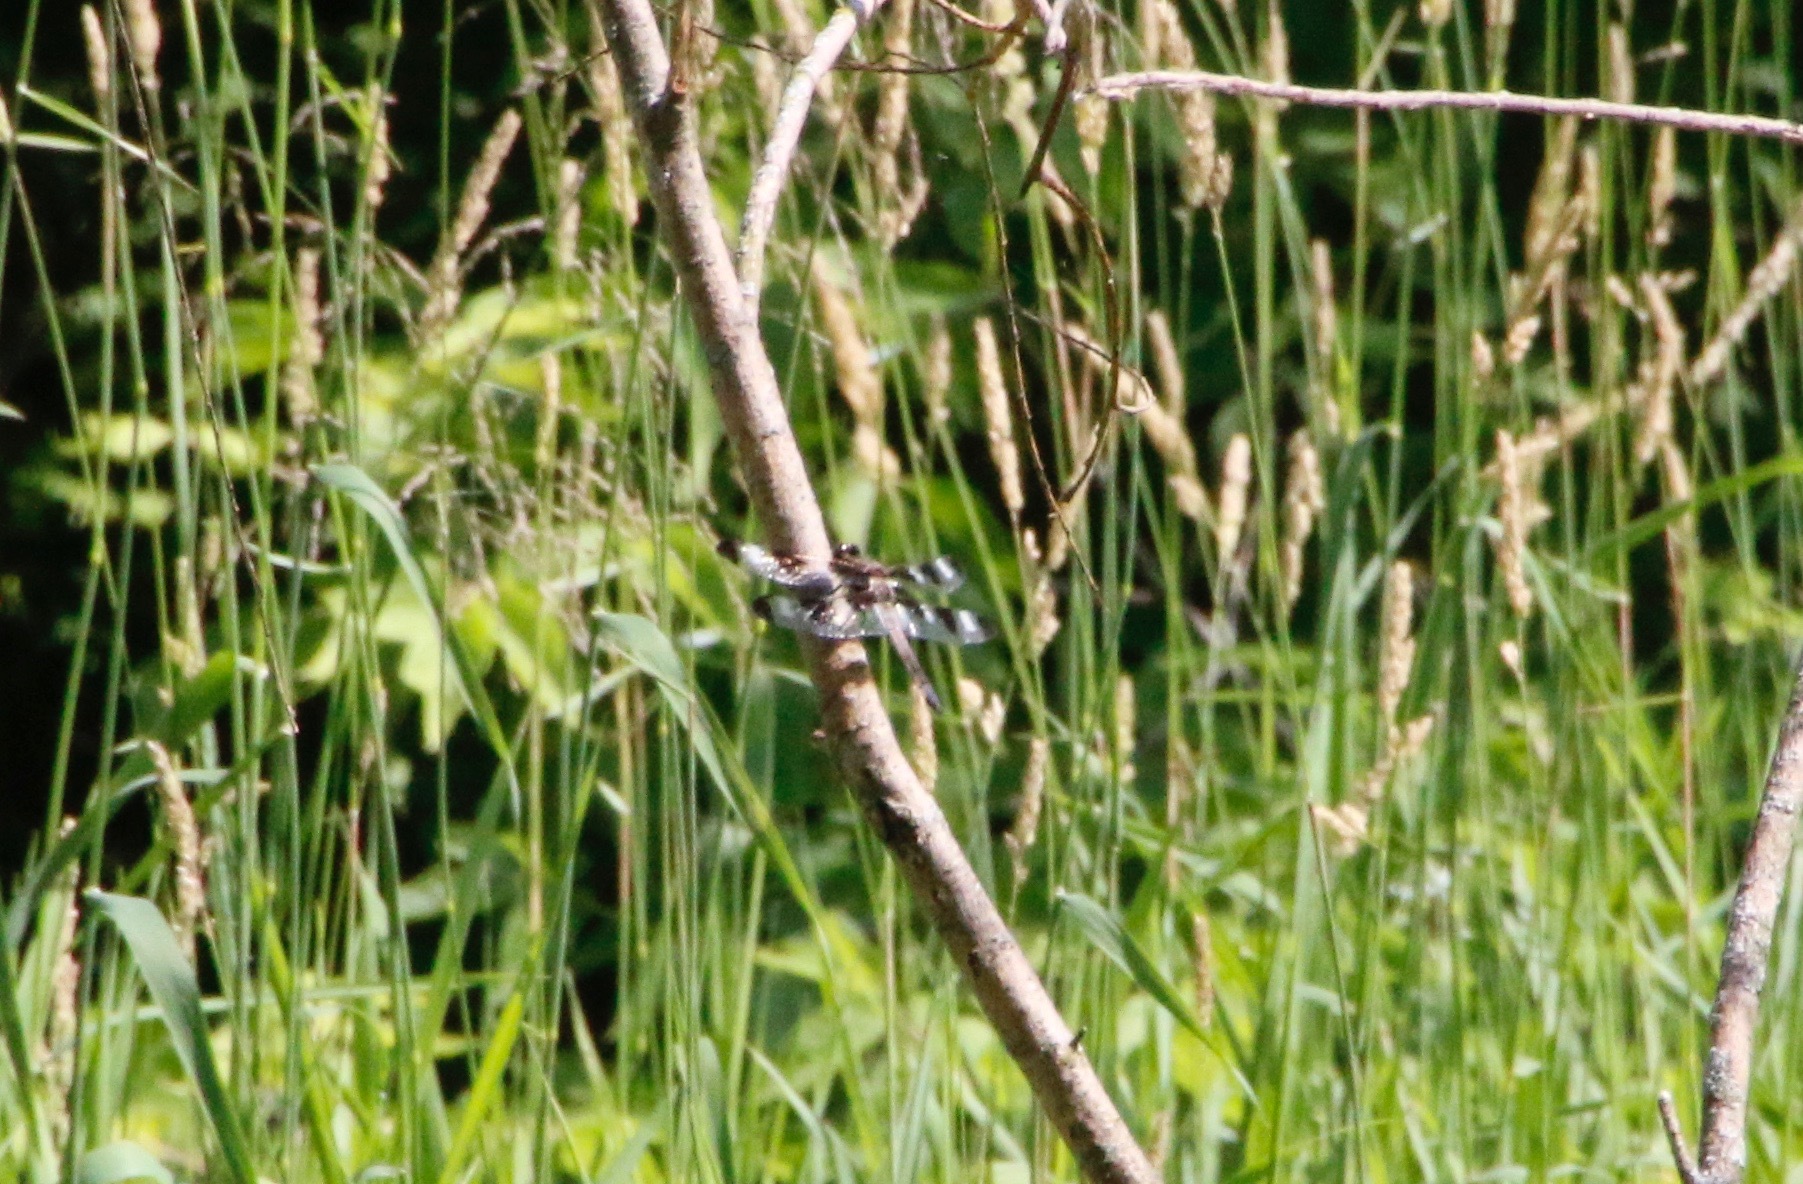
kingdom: Animalia
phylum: Arthropoda
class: Insecta
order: Odonata
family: Libellulidae
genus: Libellula
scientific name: Libellula pulchella
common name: Twelve-spotted skimmer
